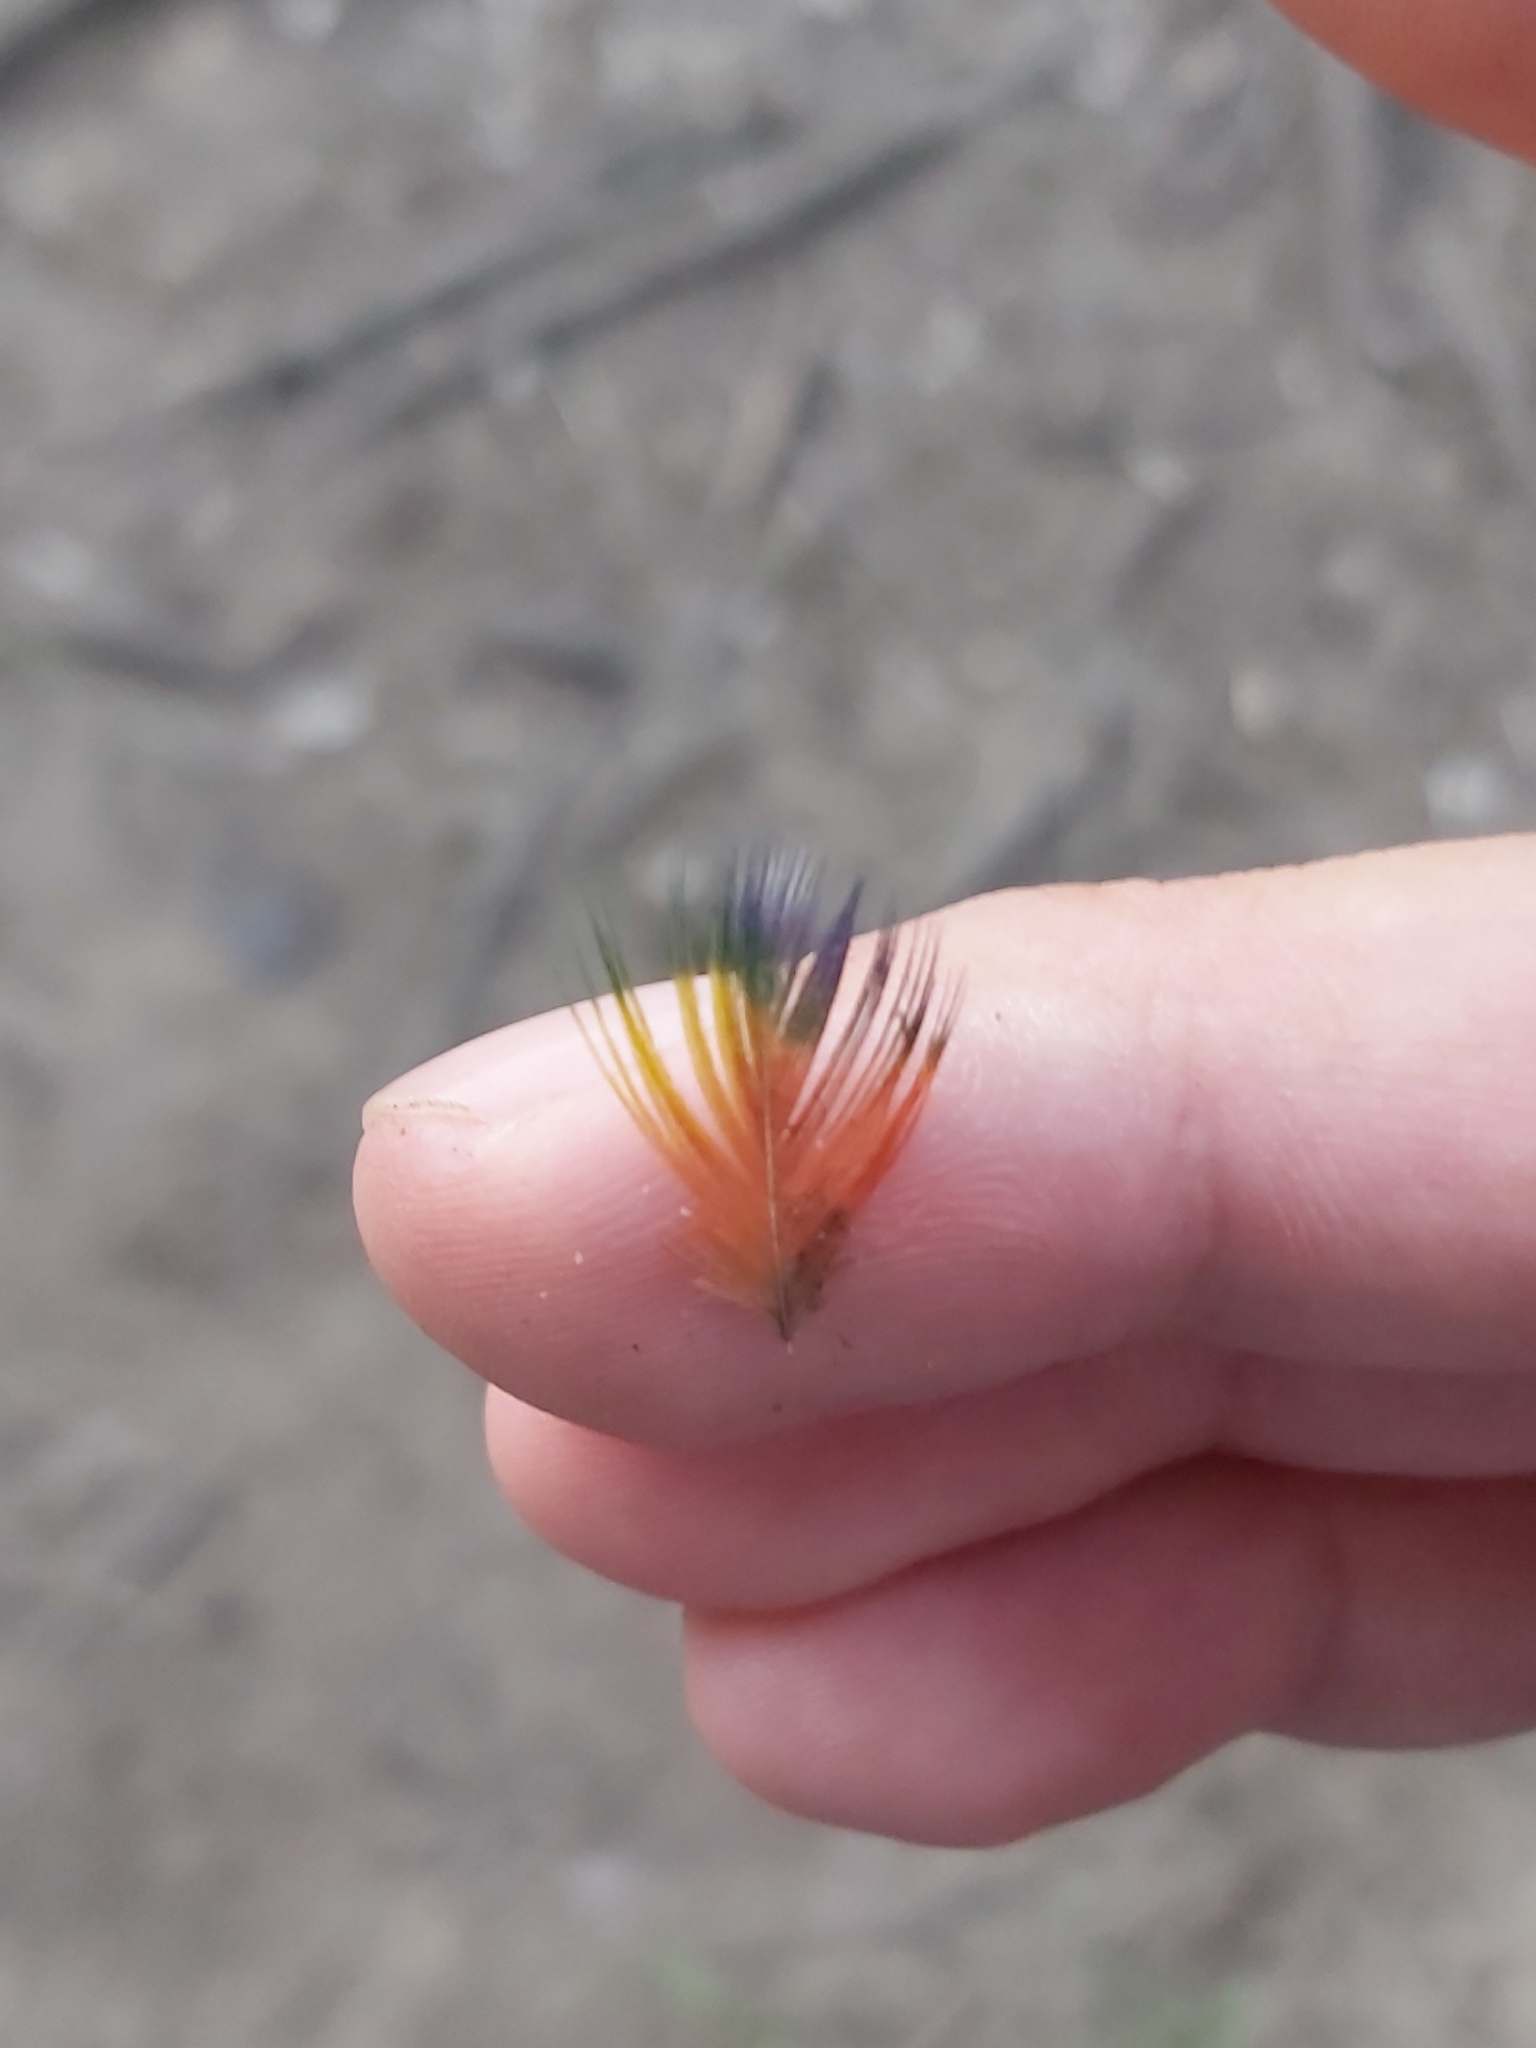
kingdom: Animalia
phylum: Chordata
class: Aves
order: Psittaciformes
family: Psittacidae
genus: Trichoglossus
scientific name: Trichoglossus haematodus
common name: Coconut lorikeet
